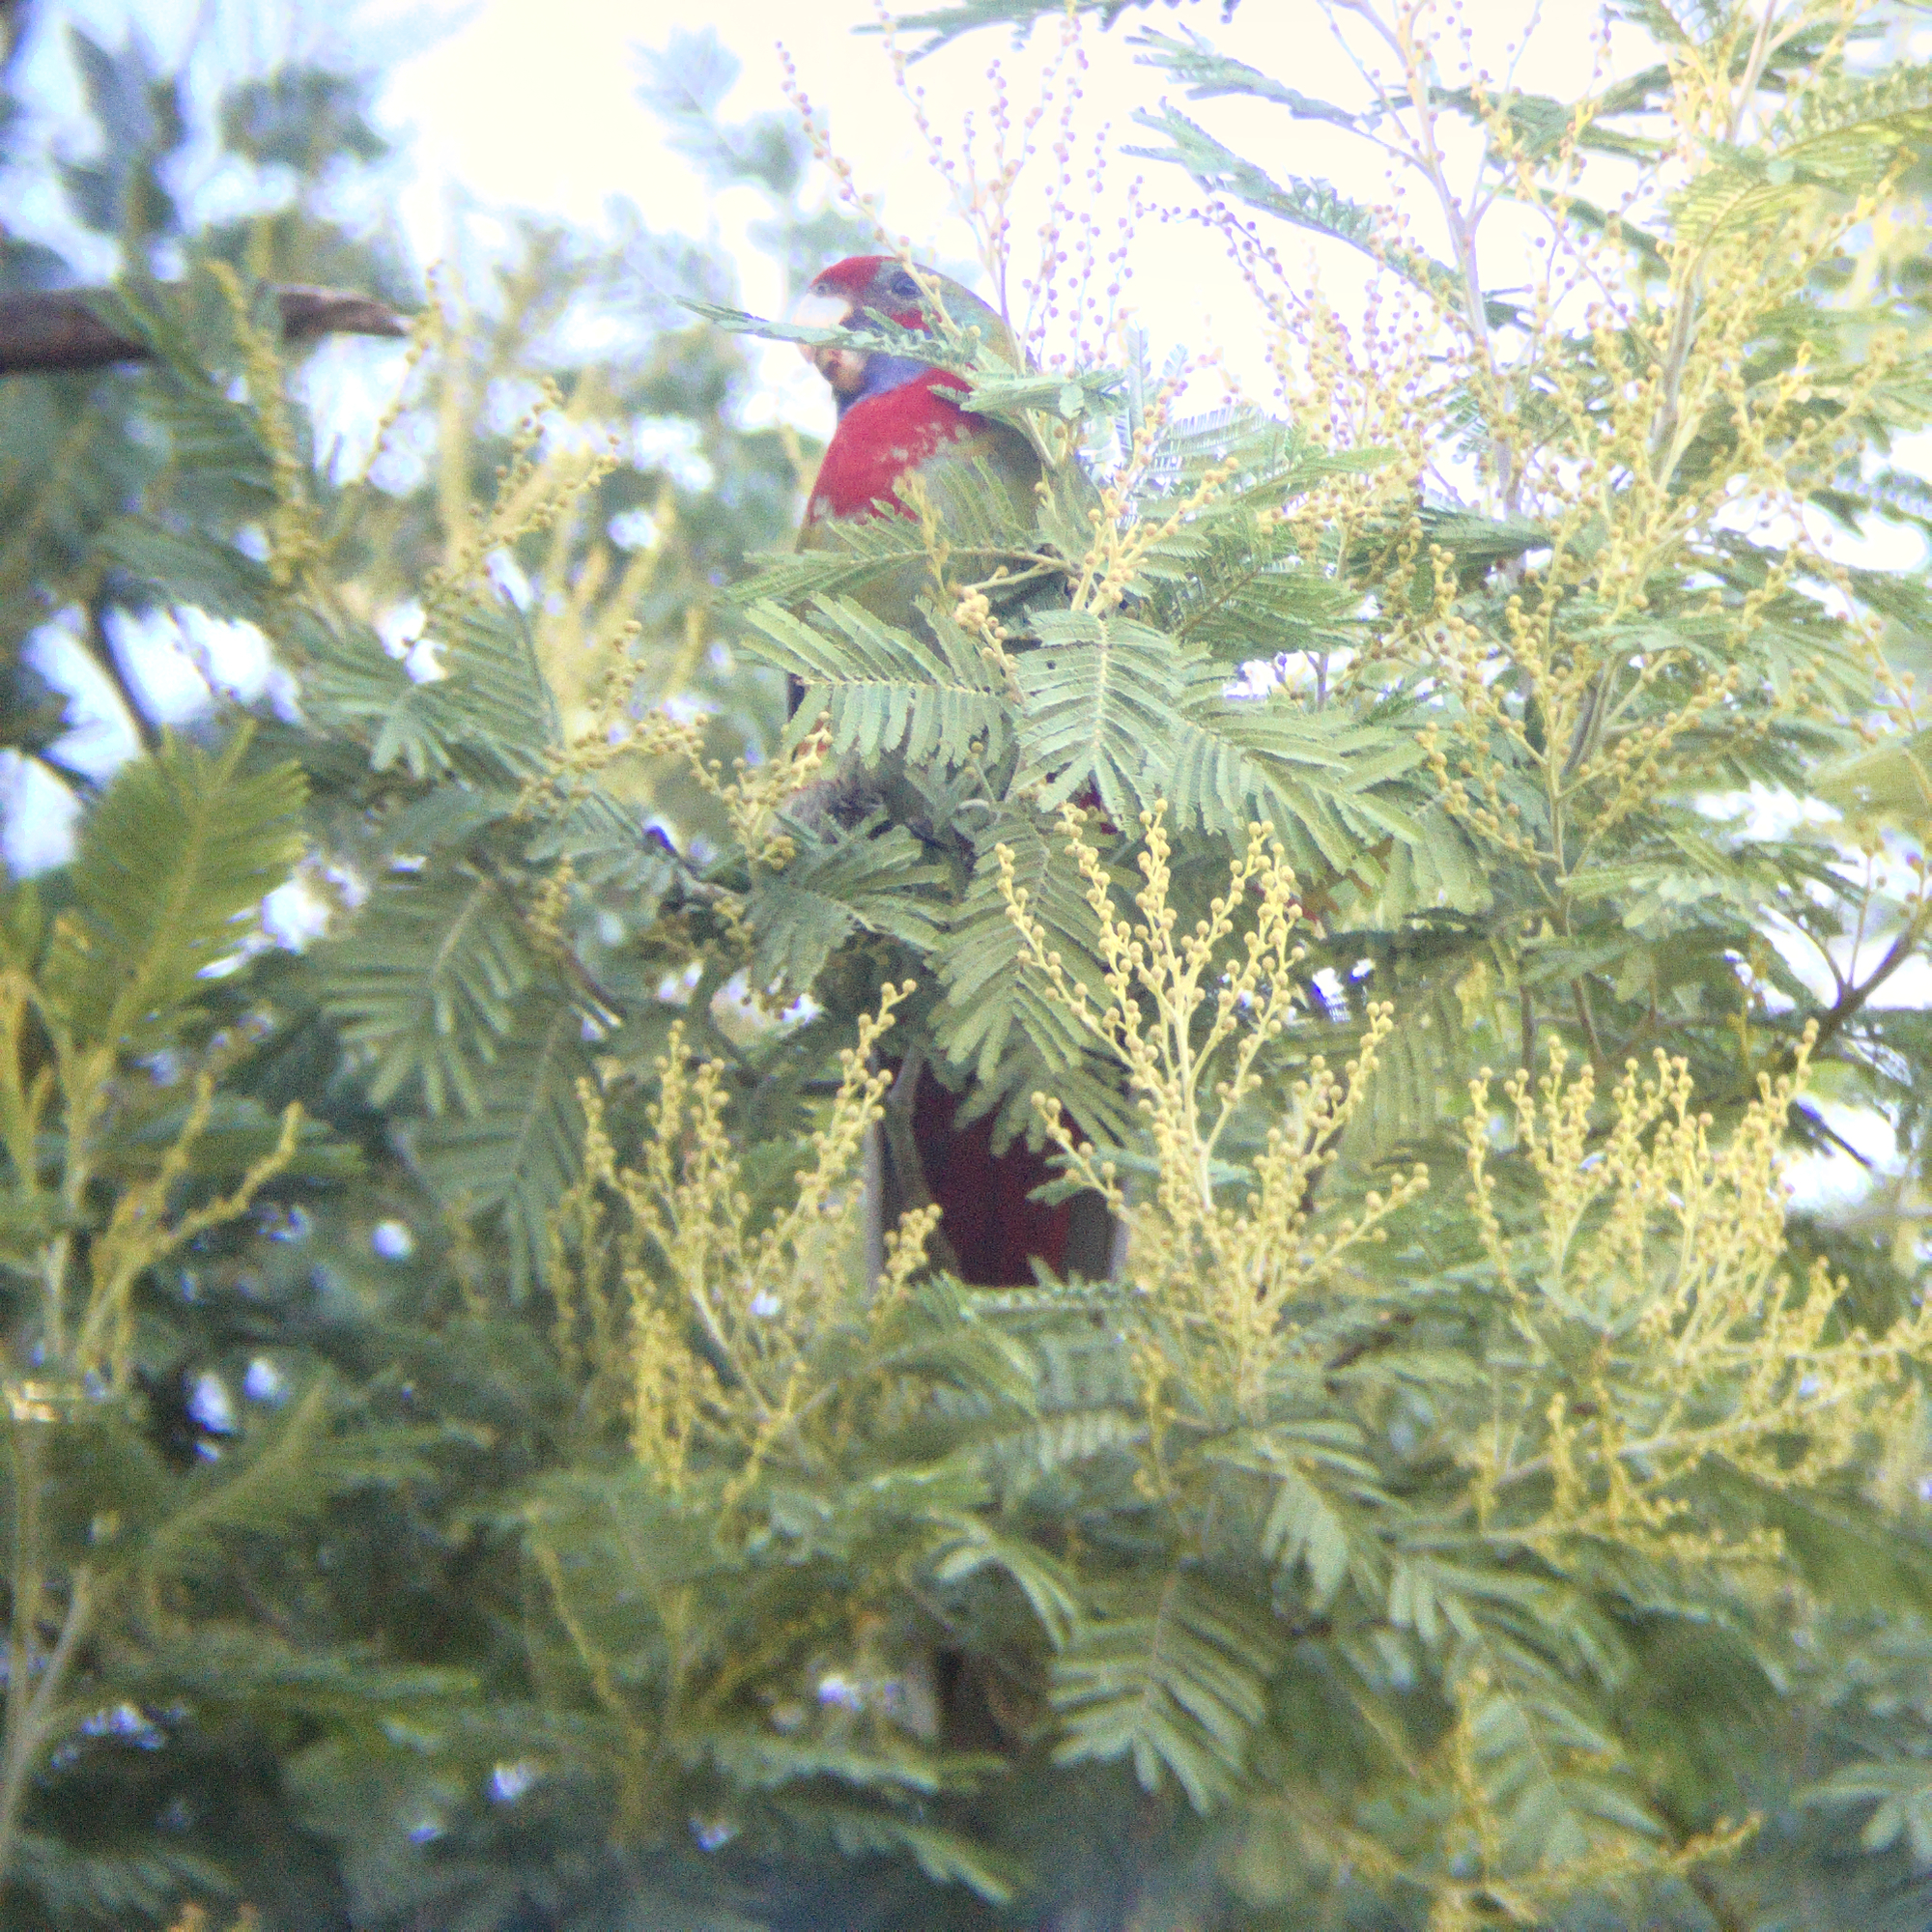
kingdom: Animalia
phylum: Chordata
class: Aves
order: Psittaciformes
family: Psittacidae
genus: Platycercus
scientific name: Platycercus elegans
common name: Crimson rosella
